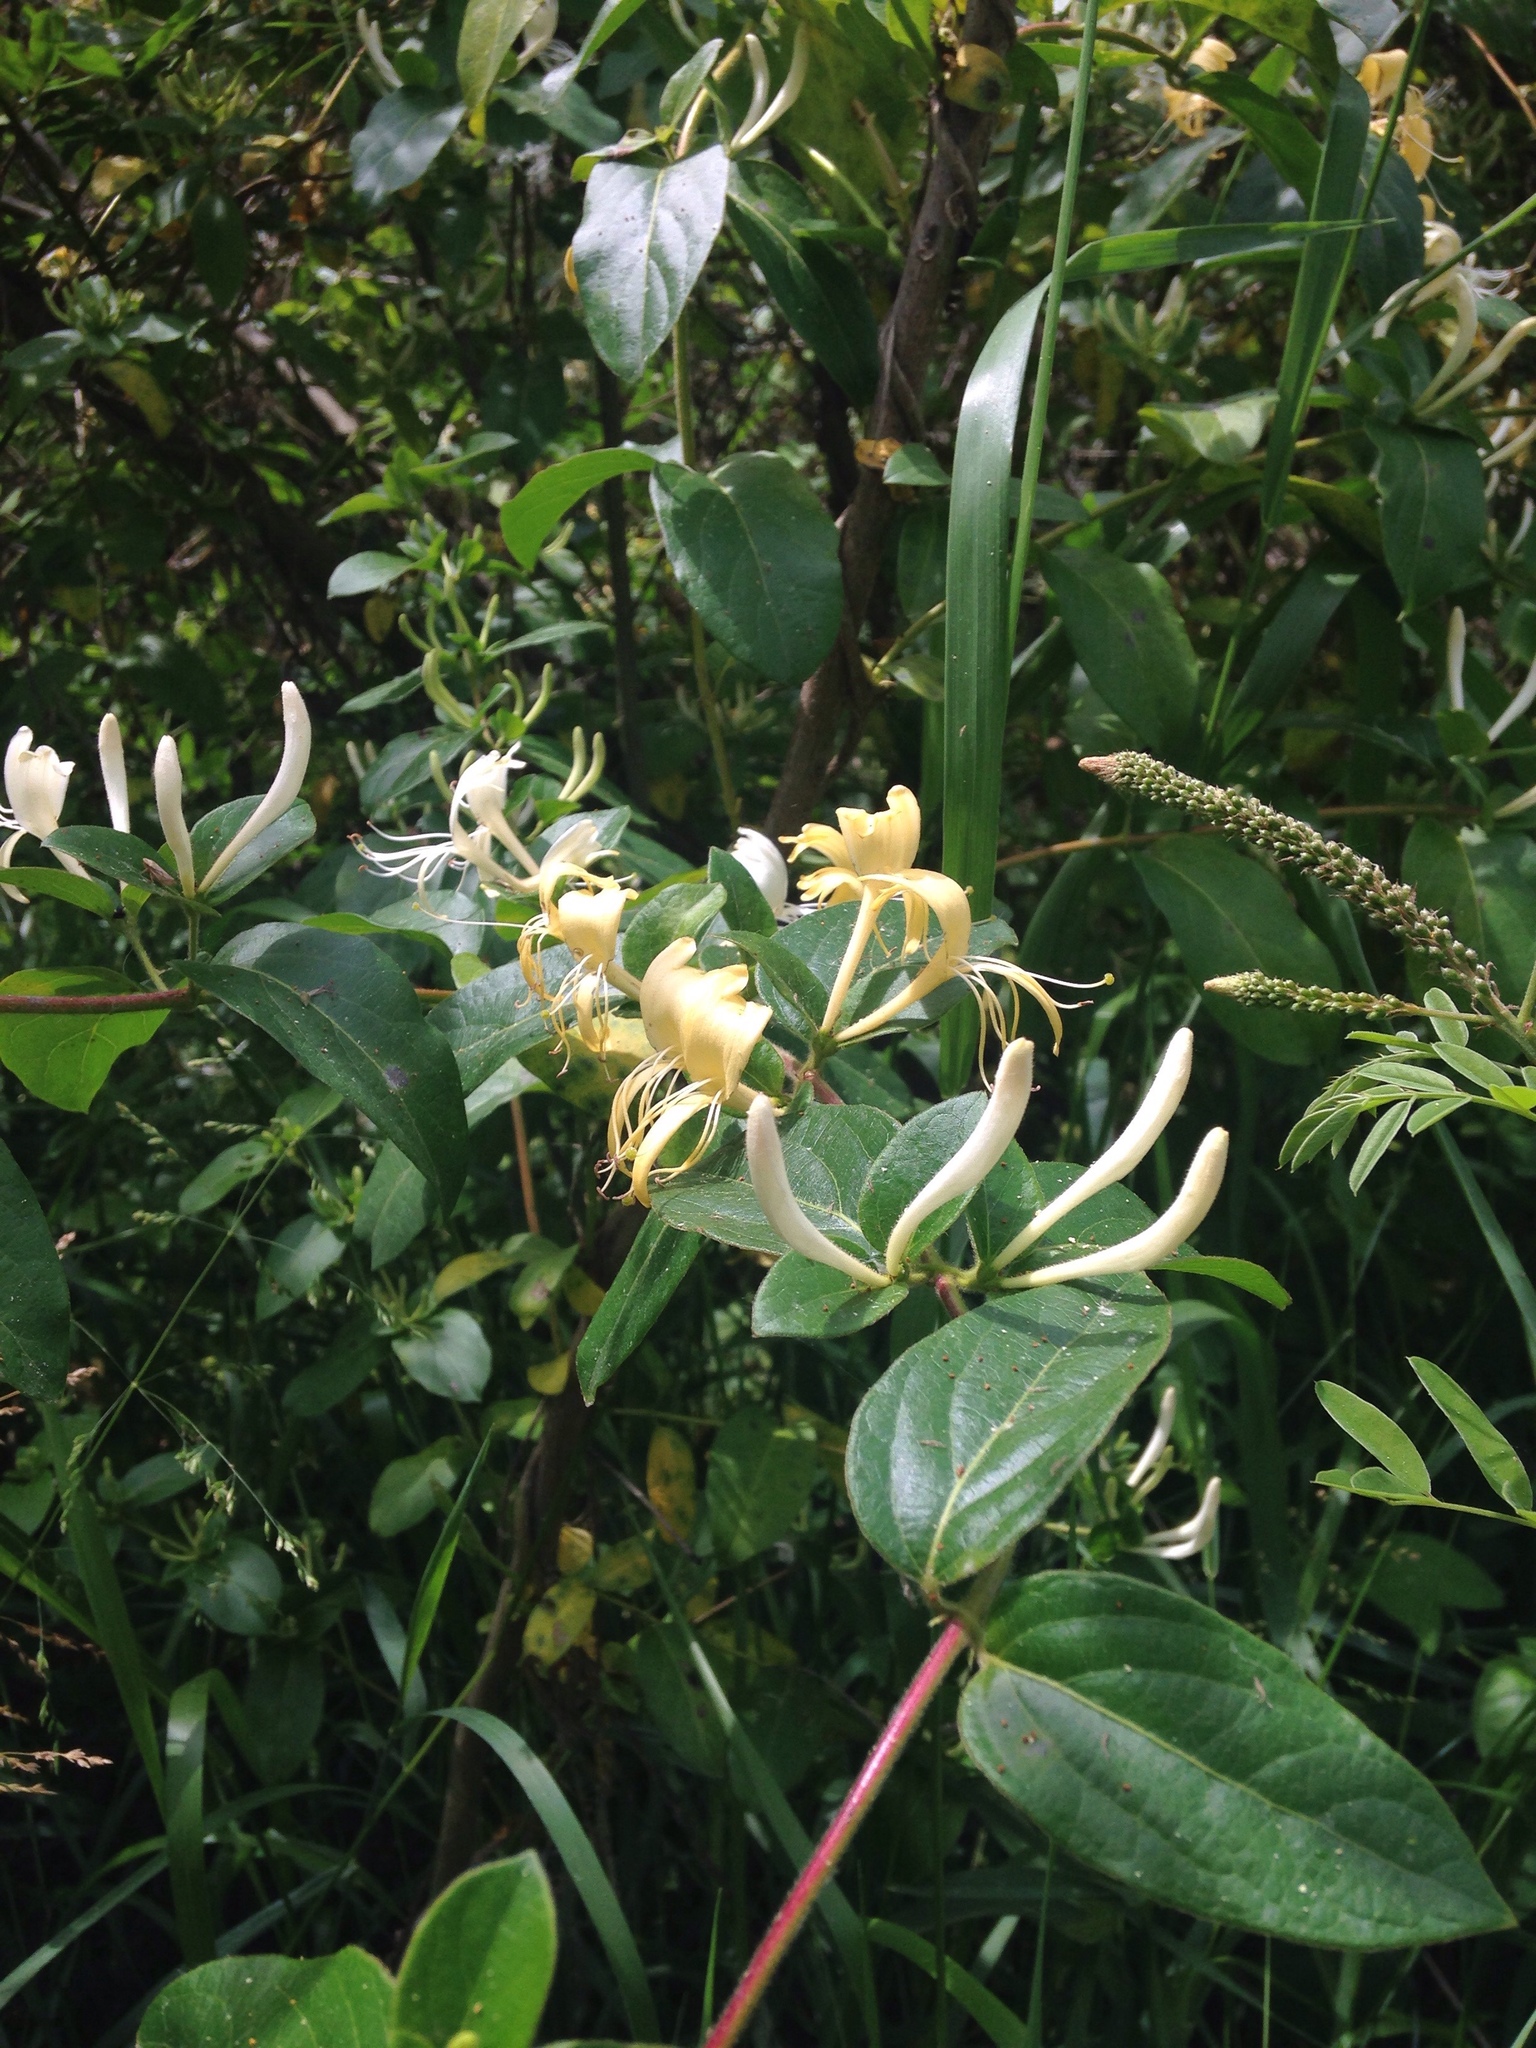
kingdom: Plantae
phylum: Tracheophyta
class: Magnoliopsida
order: Dipsacales
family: Caprifoliaceae
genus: Lonicera
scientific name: Lonicera japonica
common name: Japanese honeysuckle
